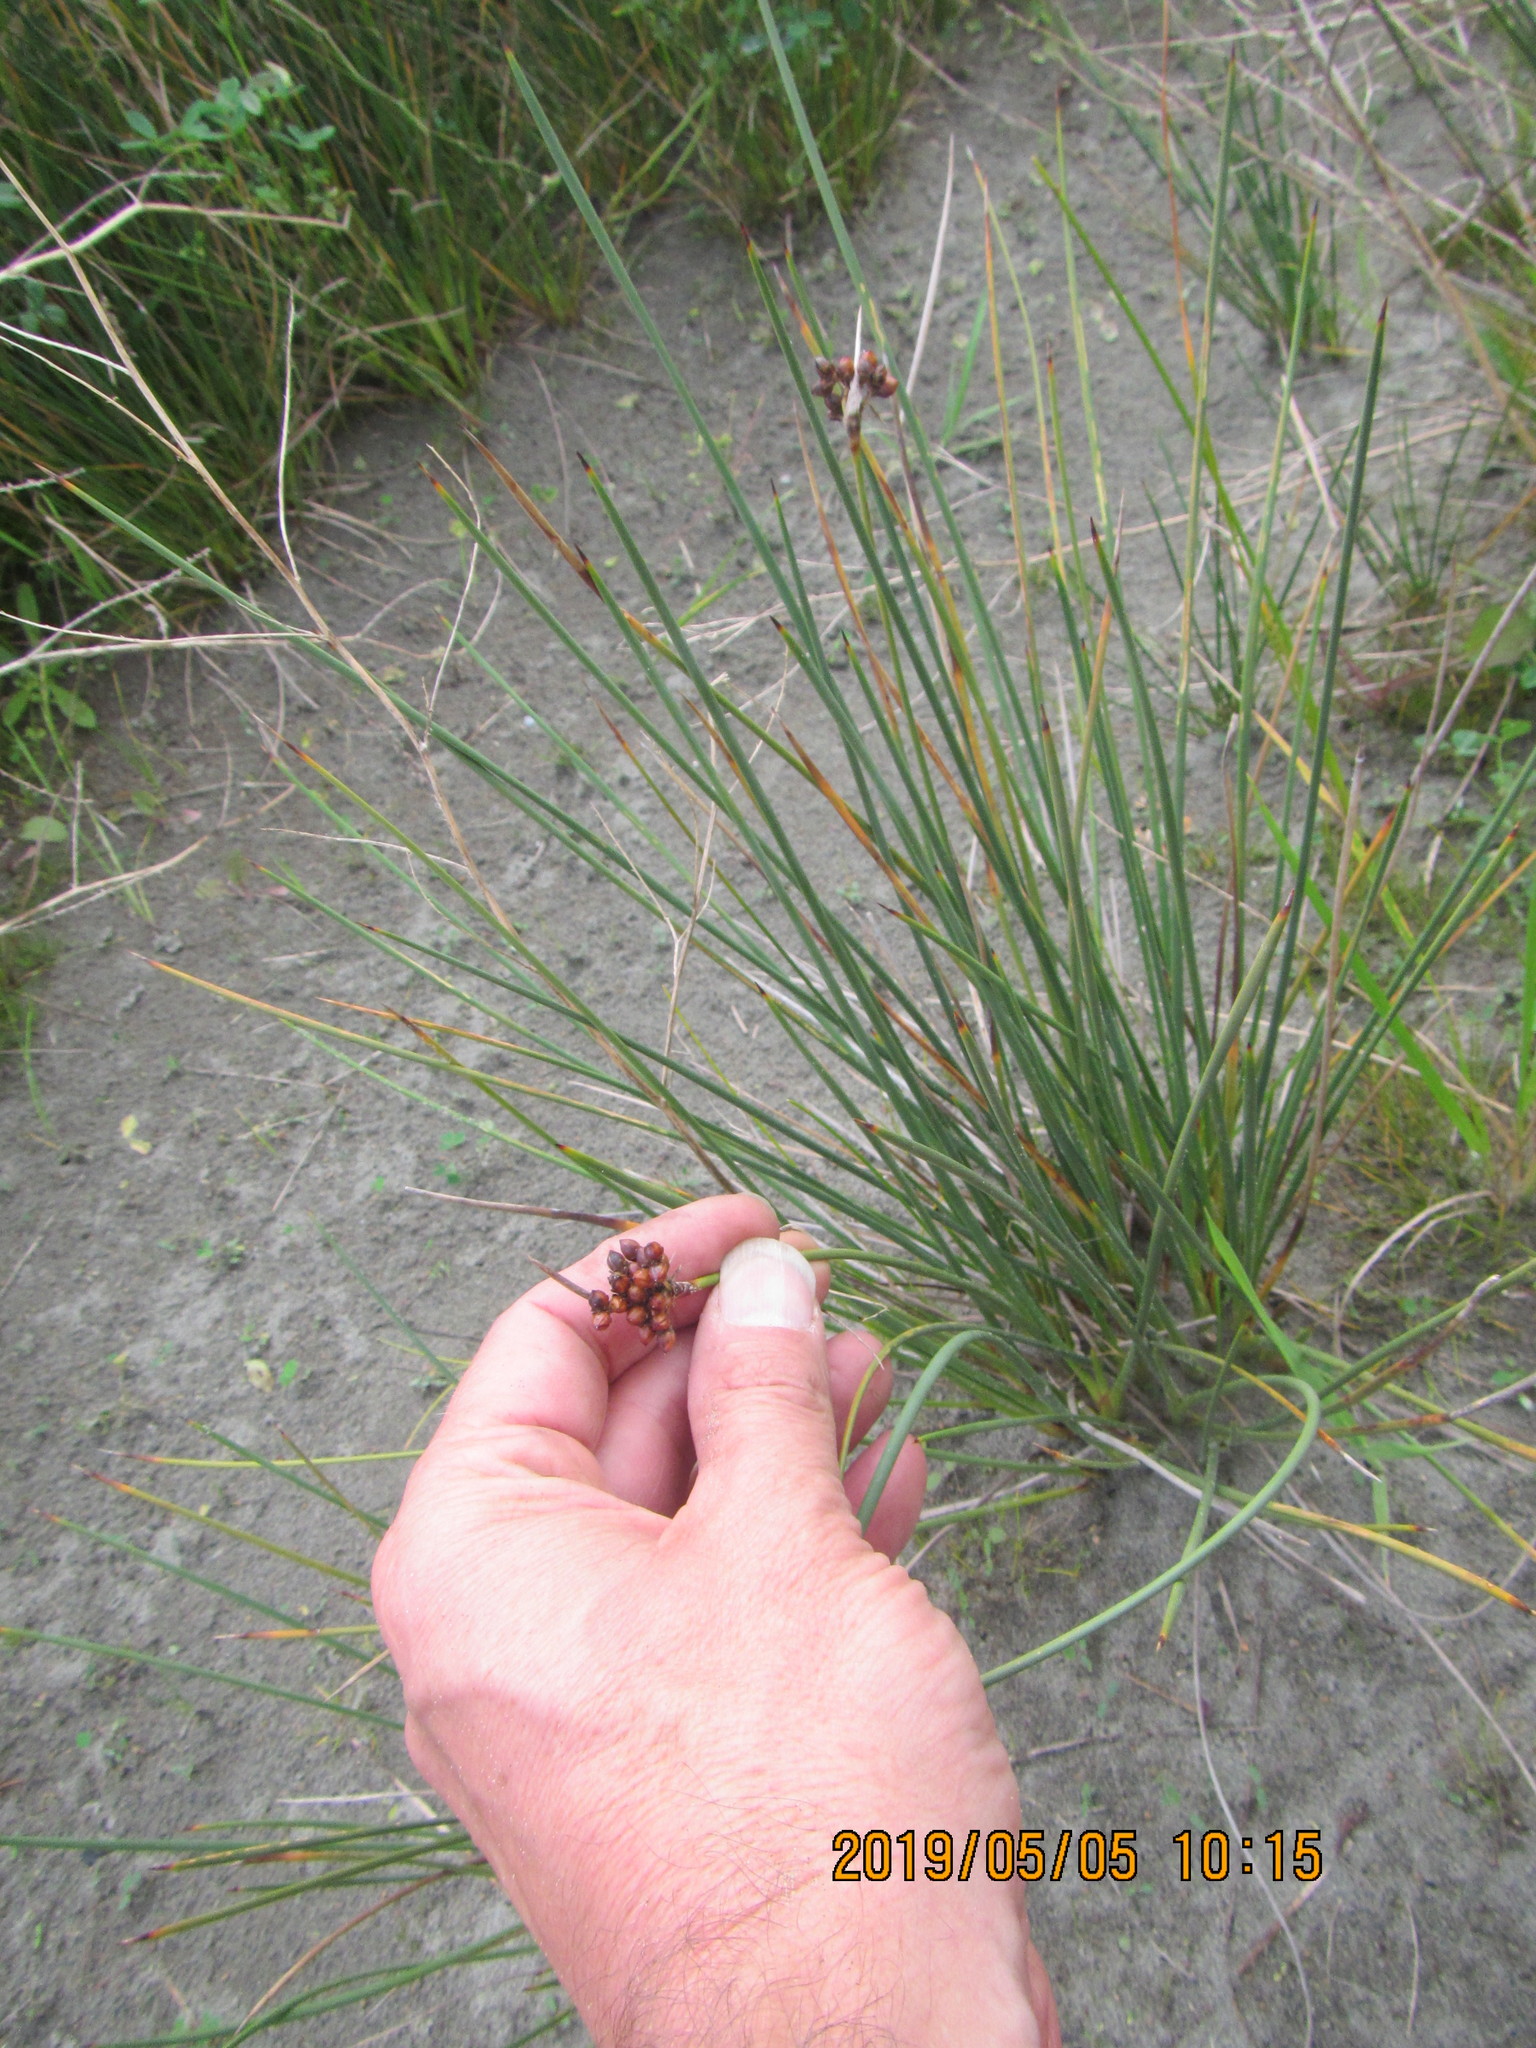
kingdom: Plantae
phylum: Tracheophyta
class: Liliopsida
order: Poales
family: Juncaceae
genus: Juncus
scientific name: Juncus acutus
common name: Sharp rush
